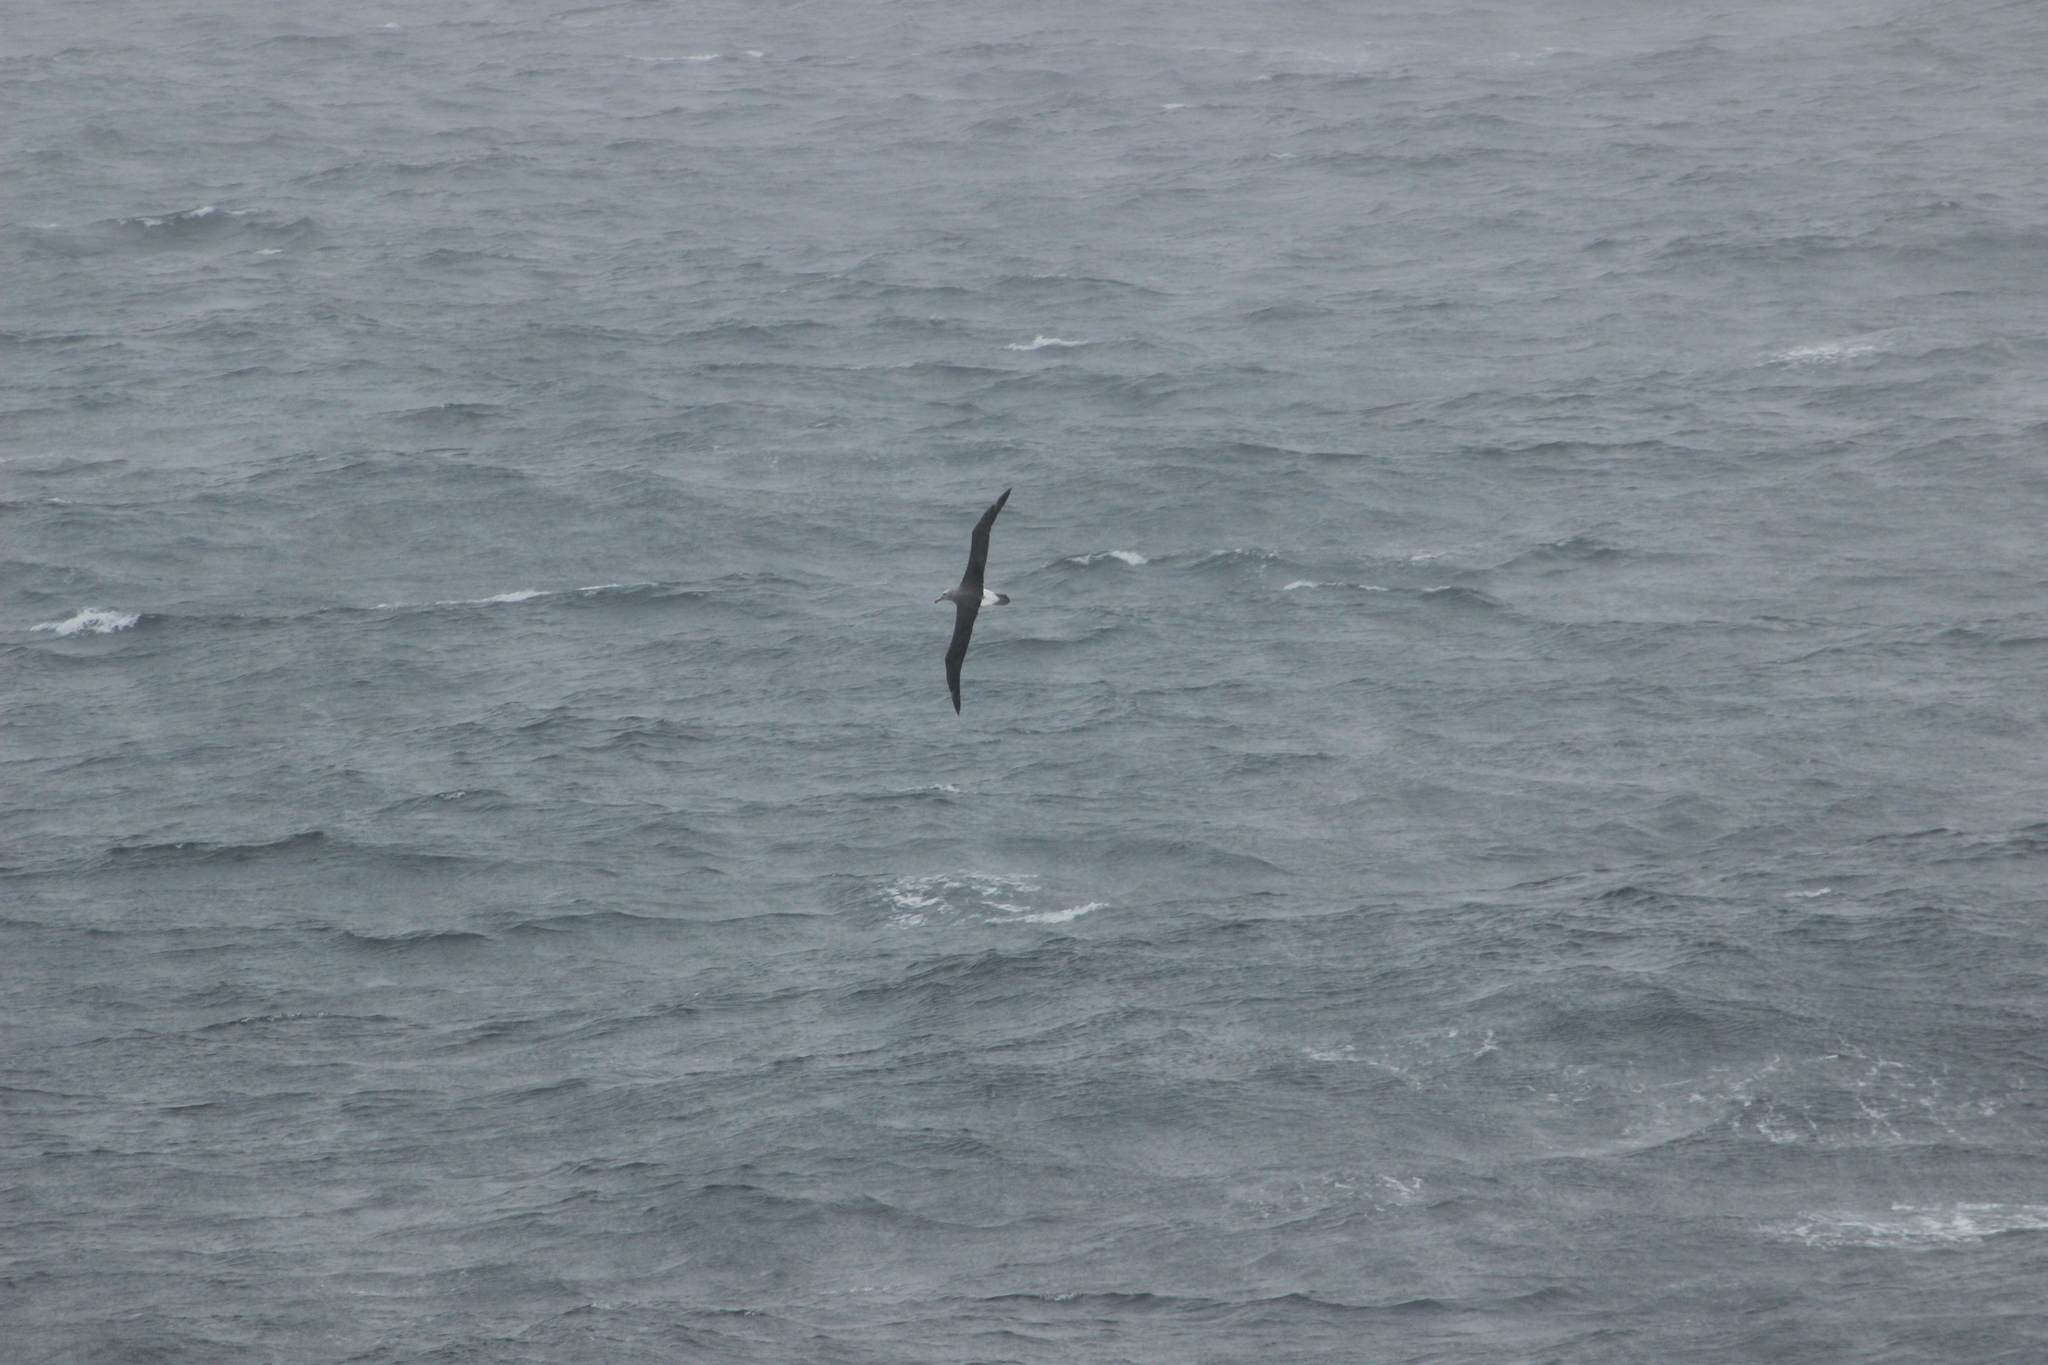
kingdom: Animalia
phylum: Chordata
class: Aves
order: Procellariiformes
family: Diomedeidae
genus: Thalassarche
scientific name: Thalassarche salvini
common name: Salvin's albatross
